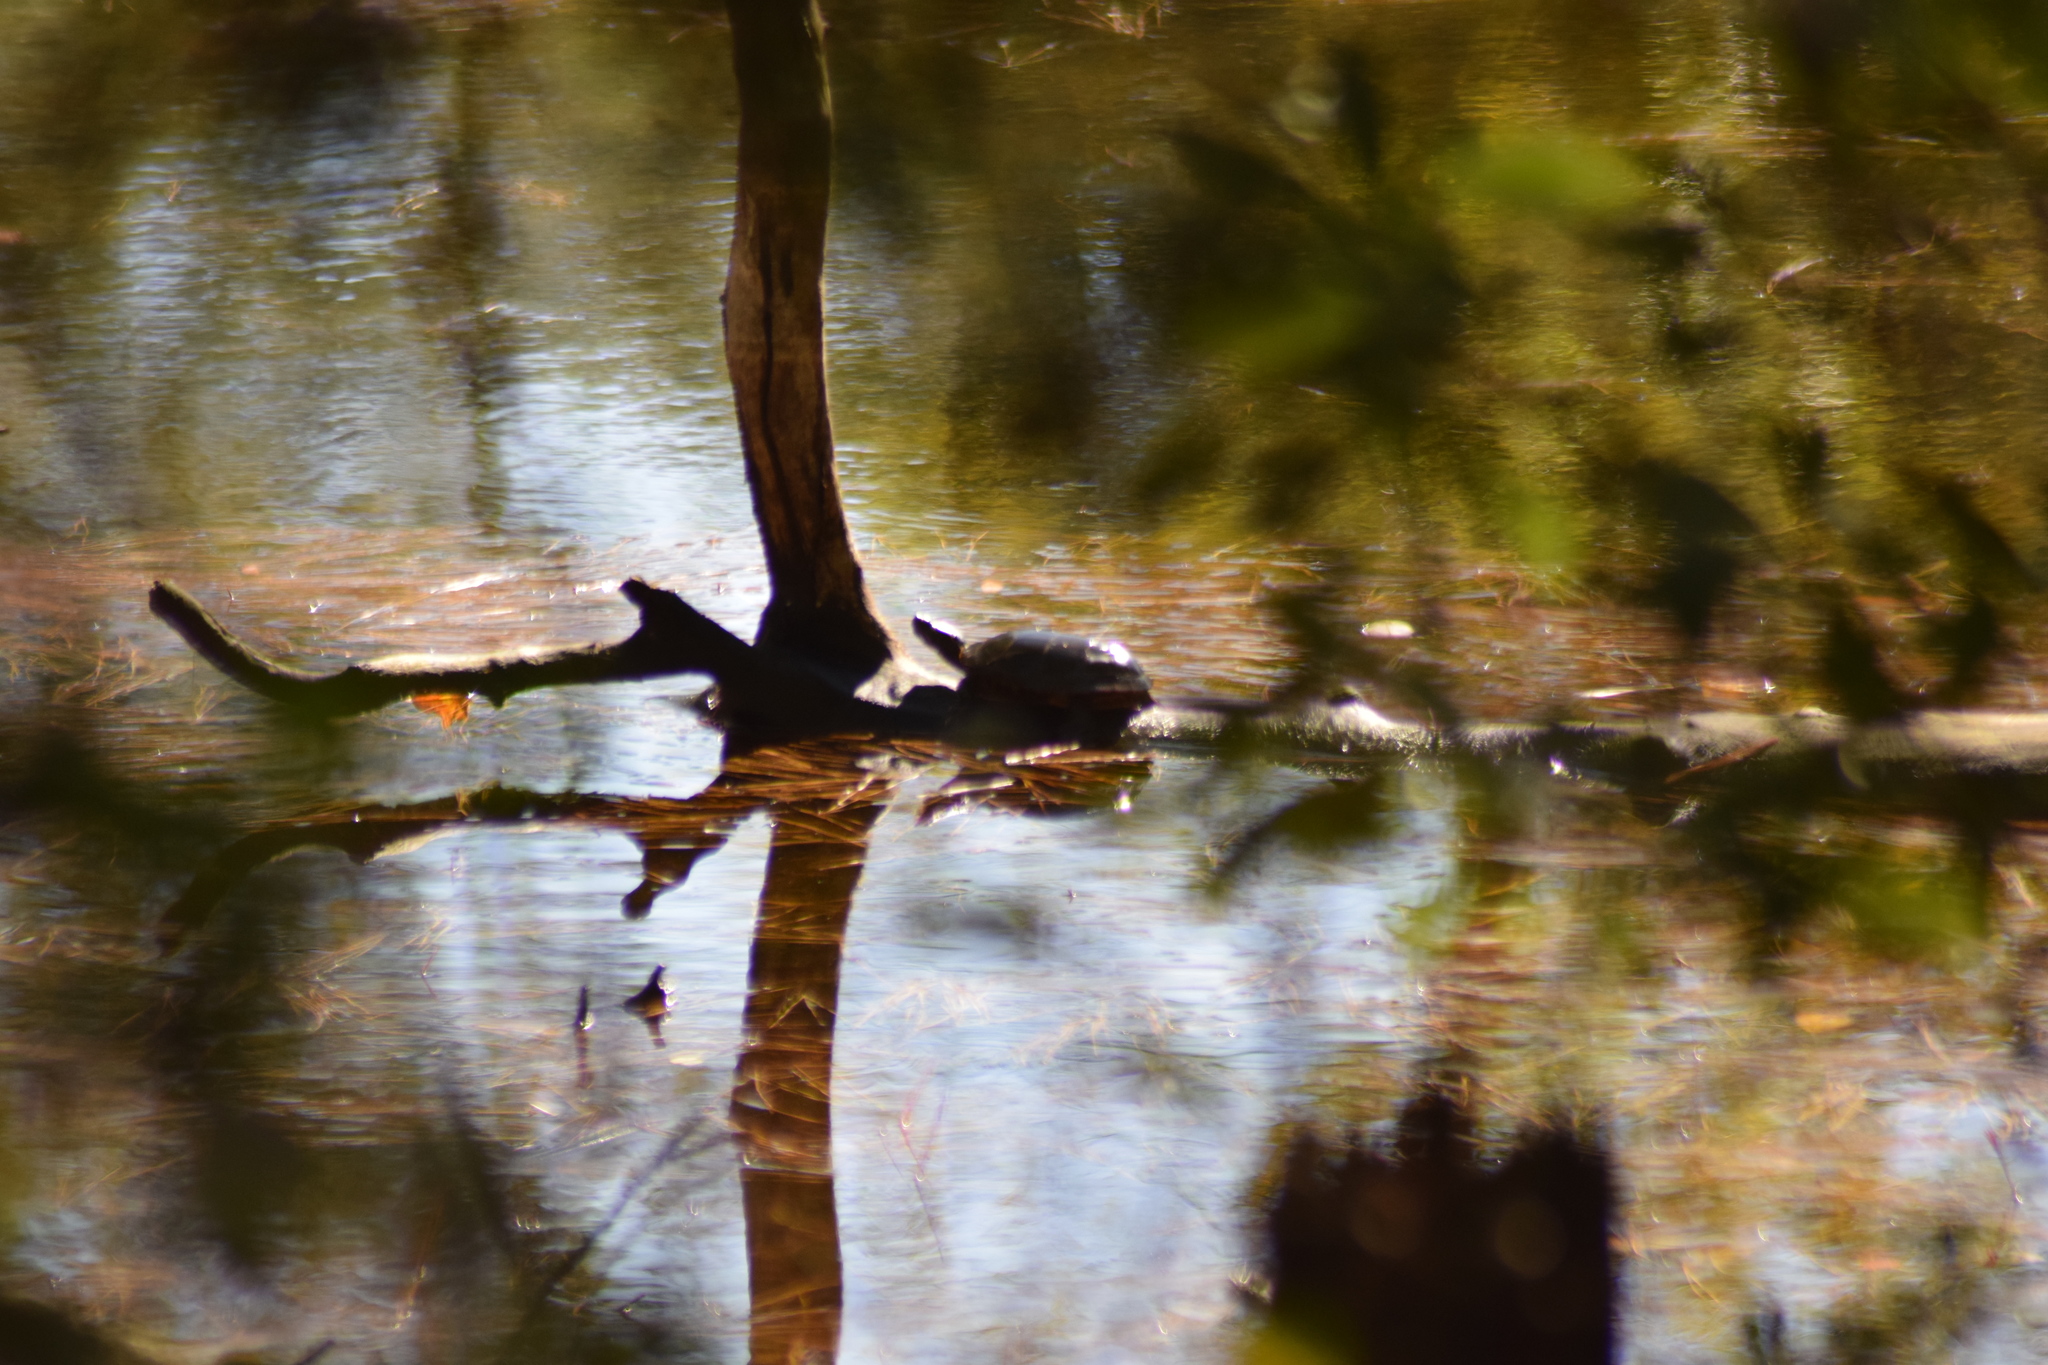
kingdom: Animalia
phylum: Chordata
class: Testudines
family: Emydidae
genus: Chrysemys
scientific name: Chrysemys picta
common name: Painted turtle
